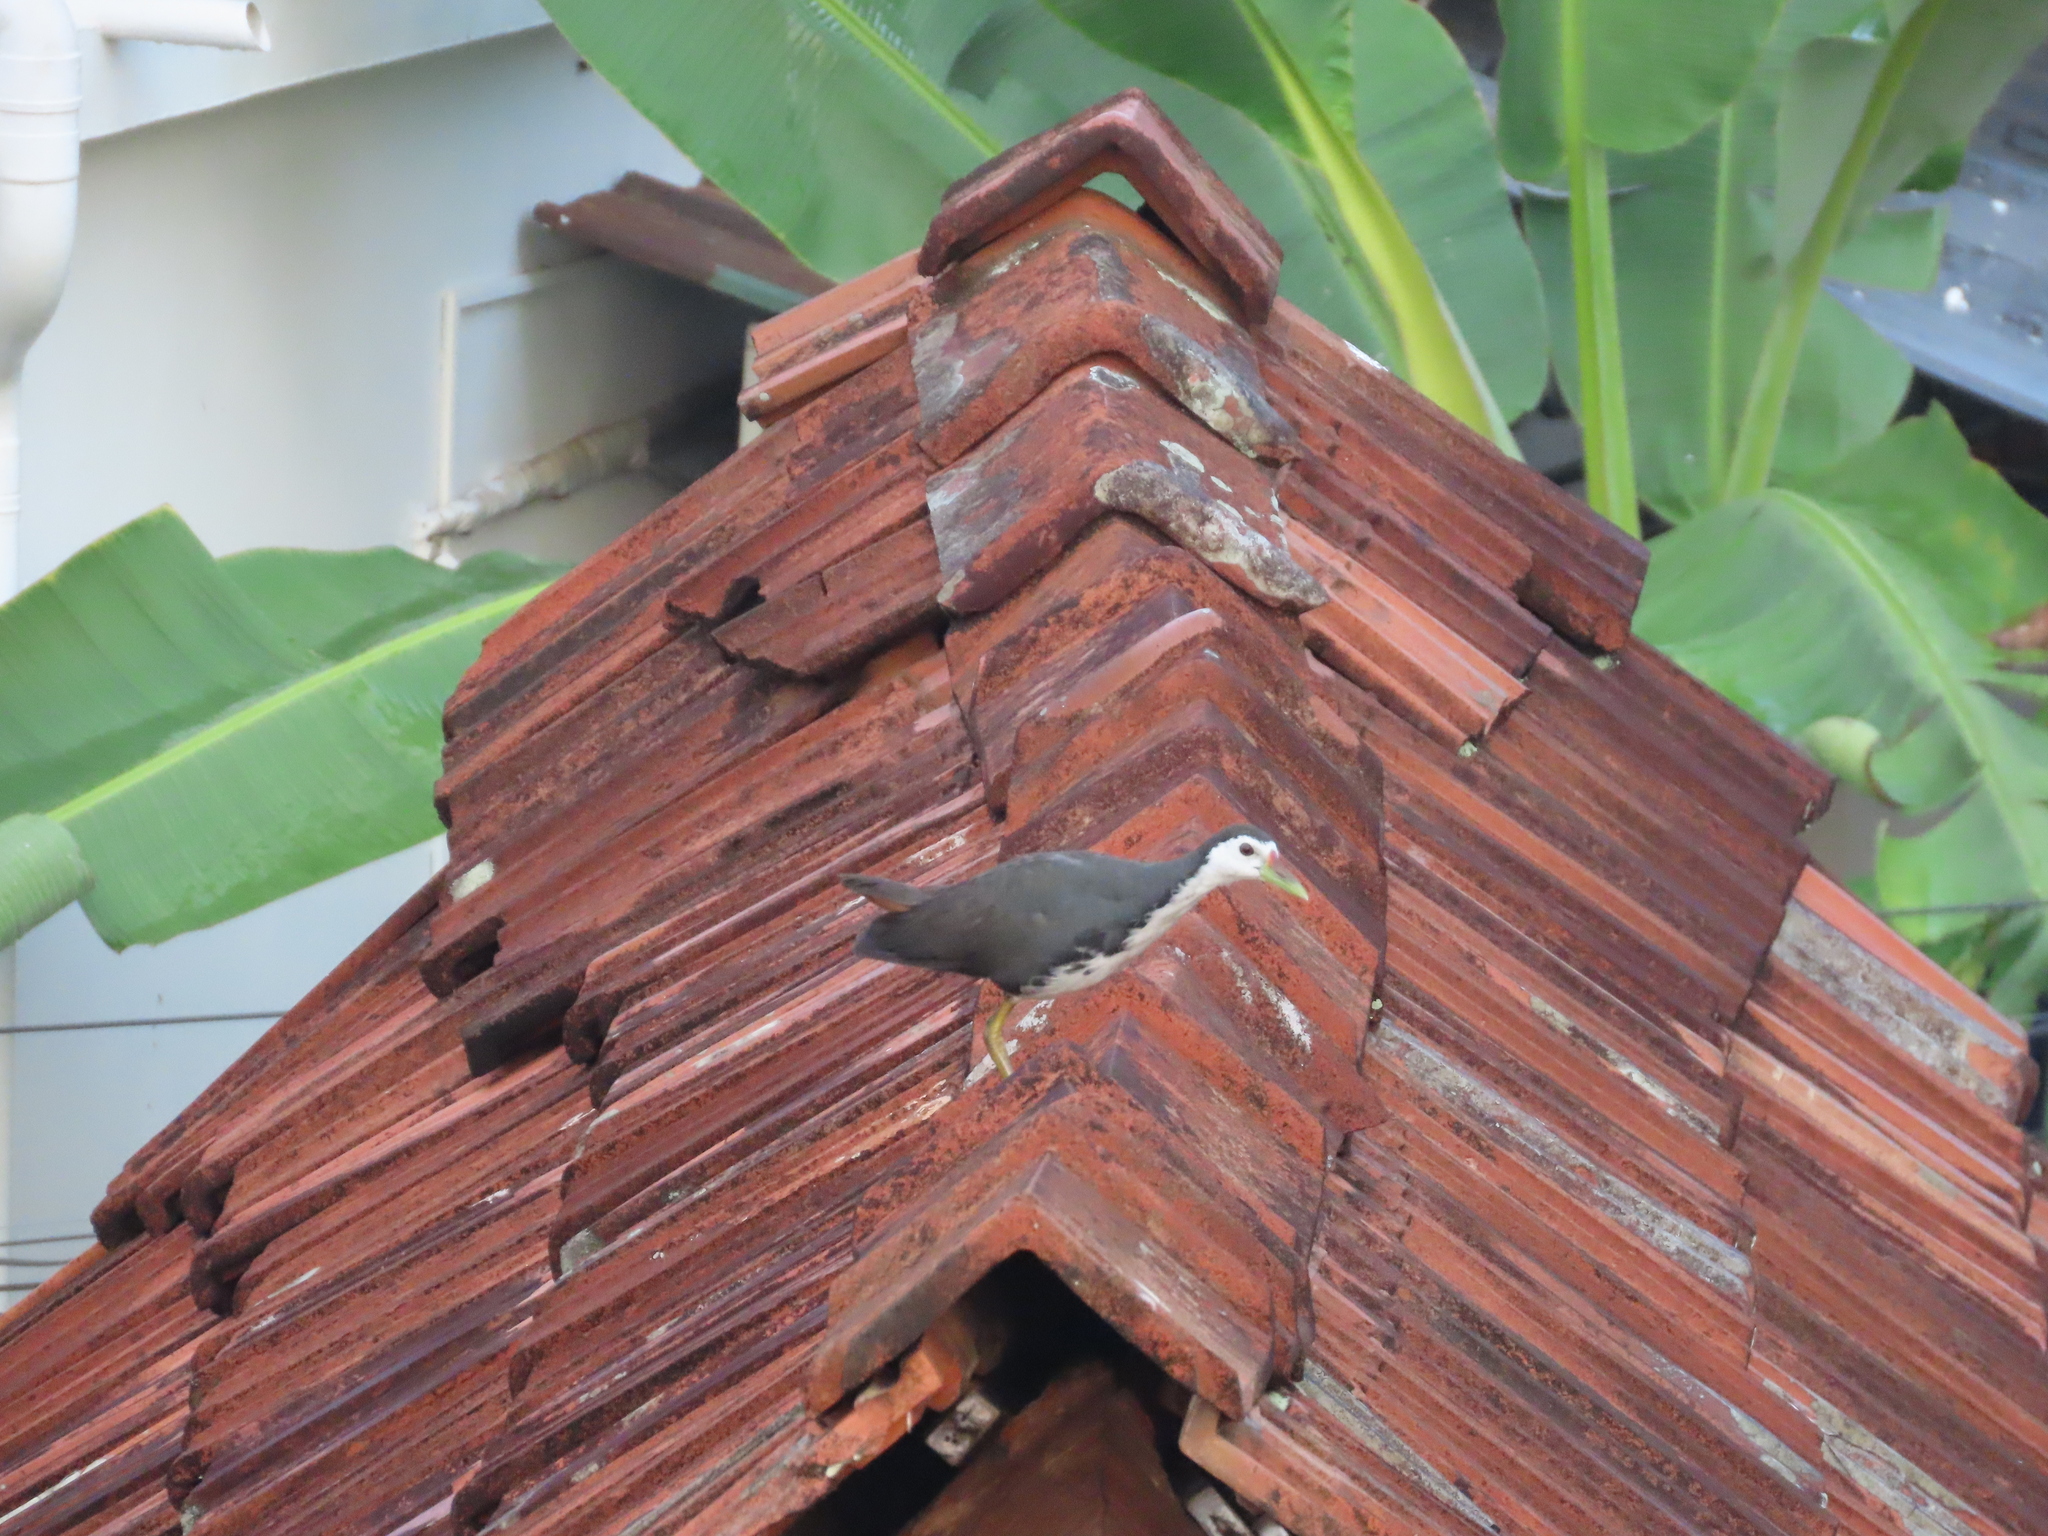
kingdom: Animalia
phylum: Chordata
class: Aves
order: Gruiformes
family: Rallidae
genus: Amaurornis
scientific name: Amaurornis phoenicurus
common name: White-breasted waterhen
